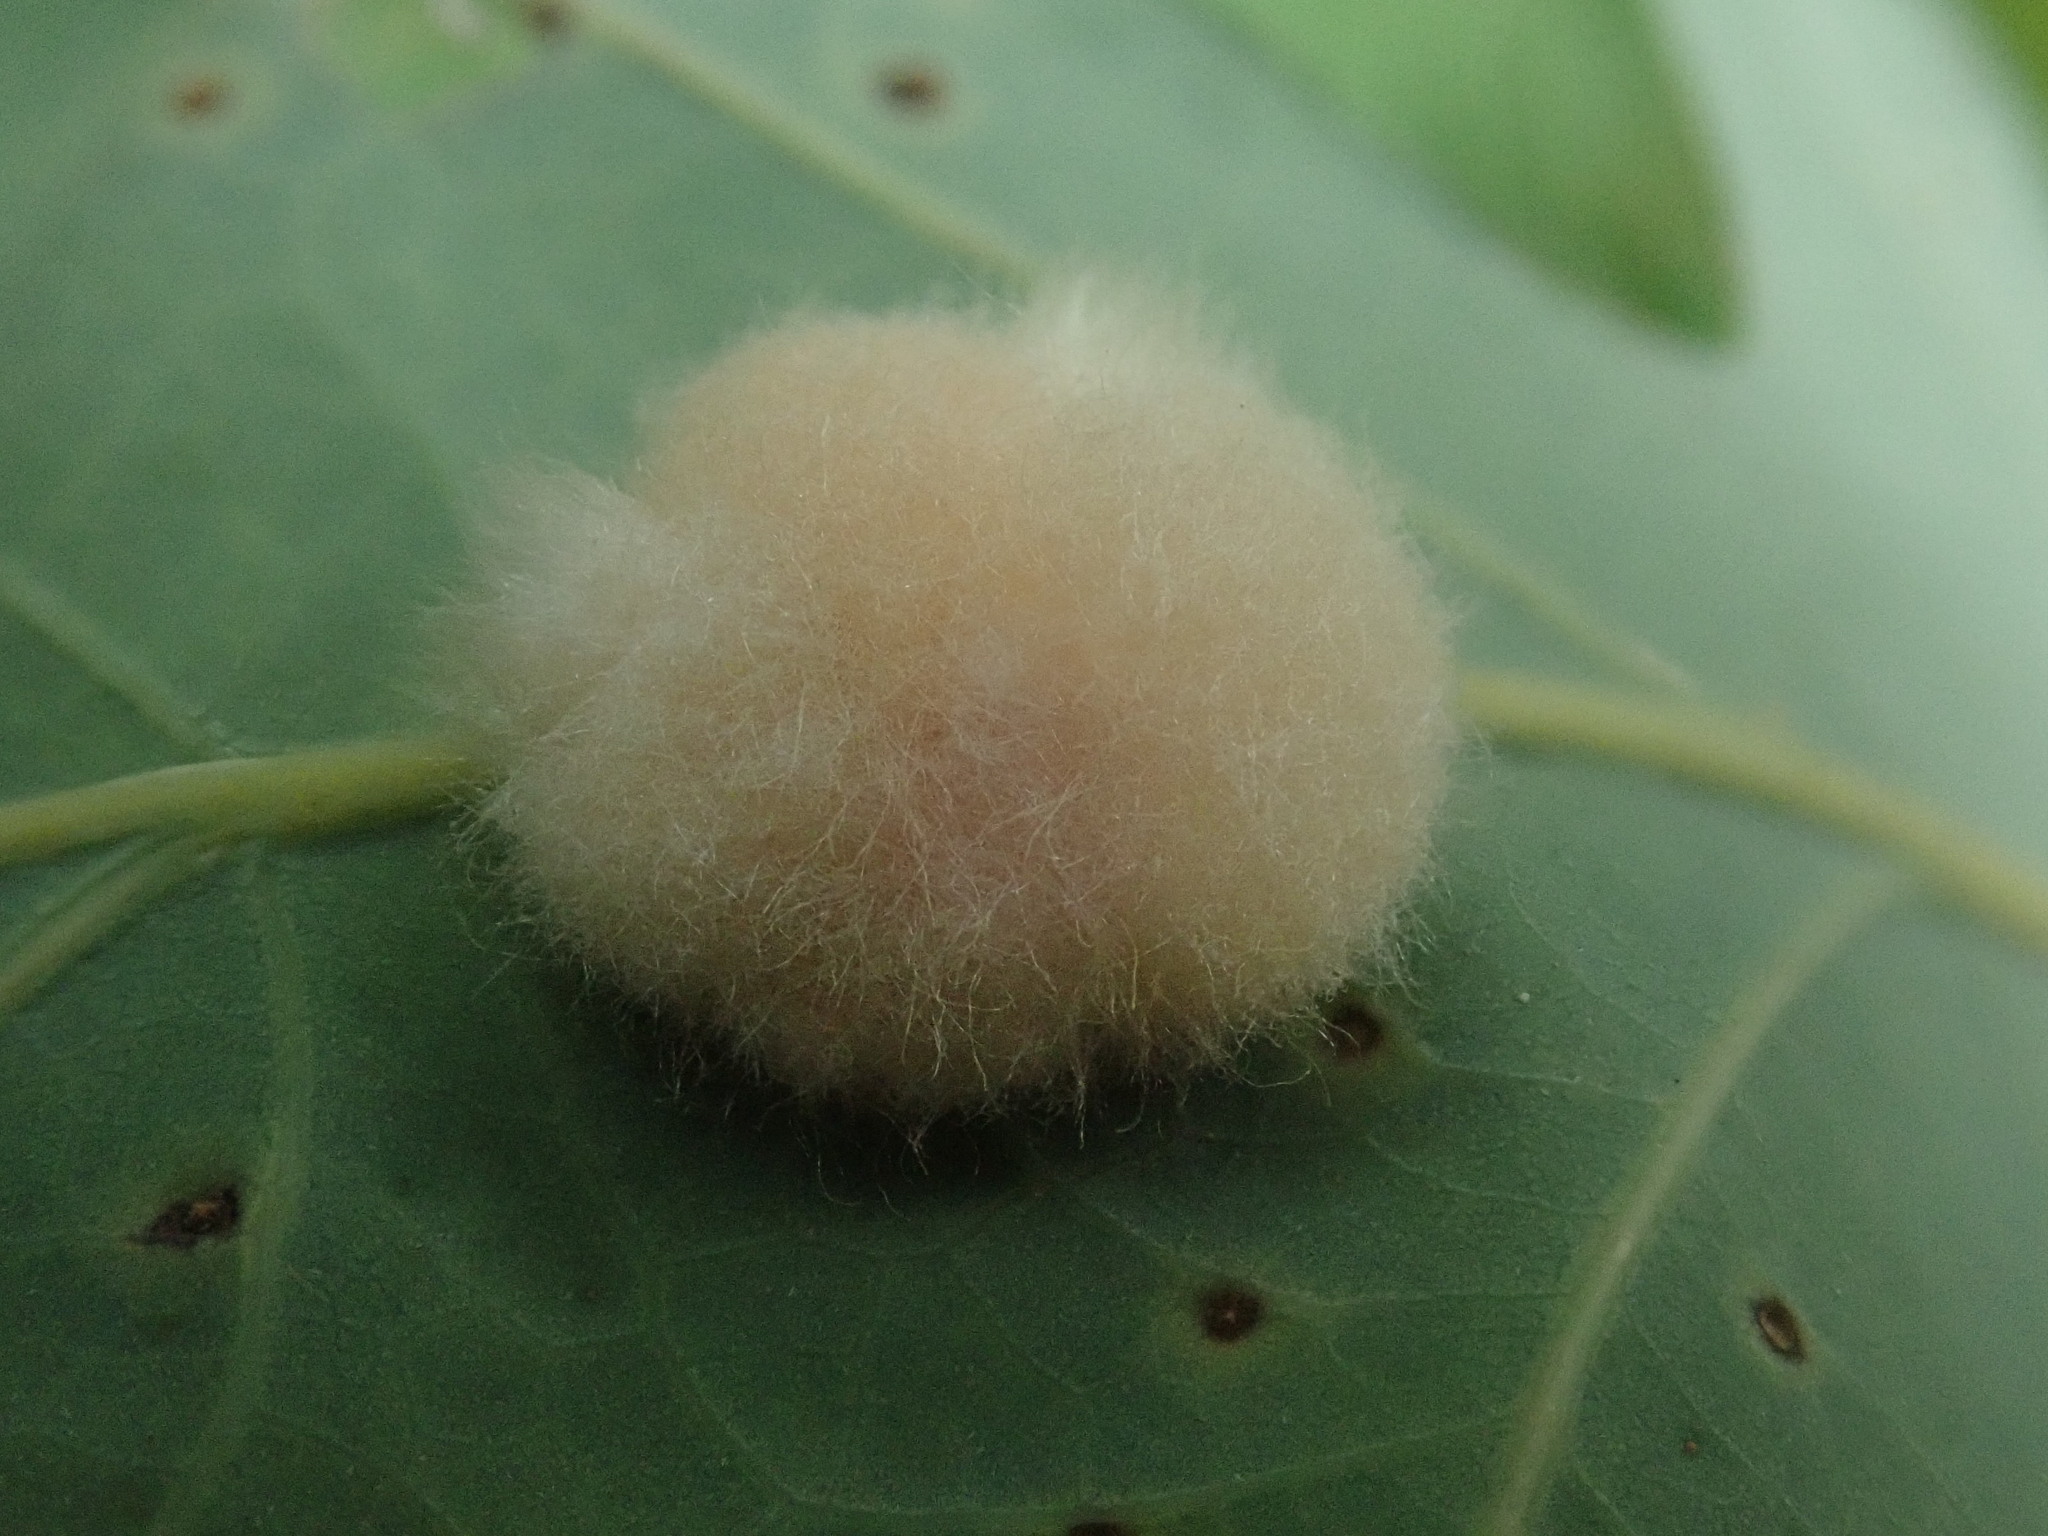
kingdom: Animalia
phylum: Arthropoda
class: Insecta
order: Hymenoptera
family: Cynipidae
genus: Callirhytis
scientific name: Callirhytis
